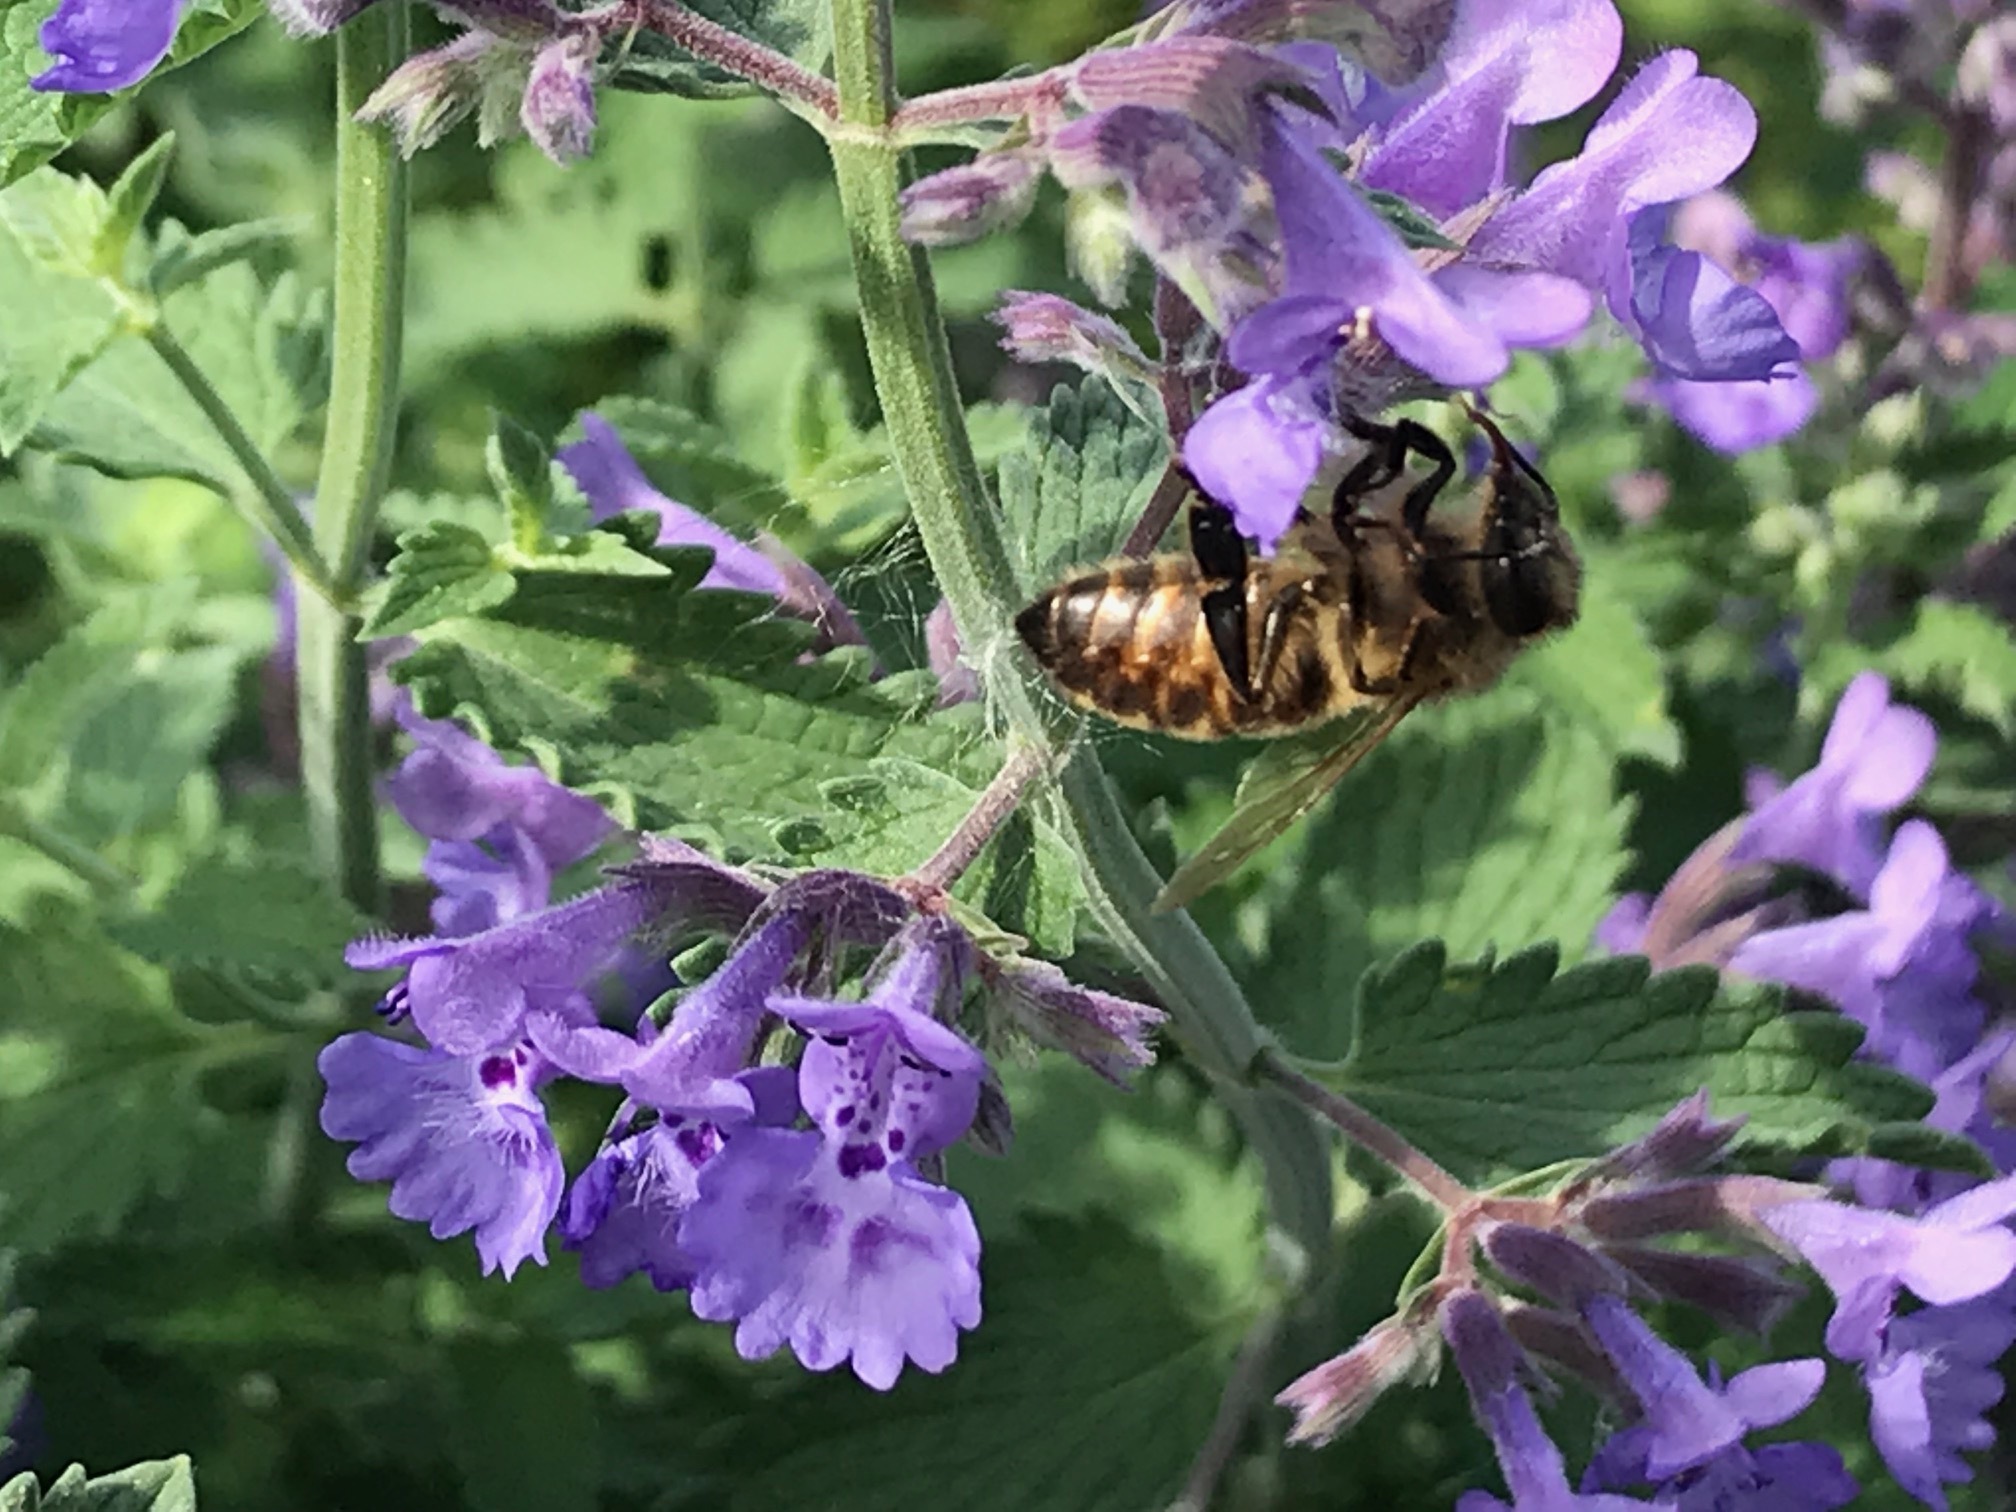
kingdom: Animalia
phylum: Arthropoda
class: Insecta
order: Hymenoptera
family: Apidae
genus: Apis
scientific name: Apis mellifera
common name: Honey bee
